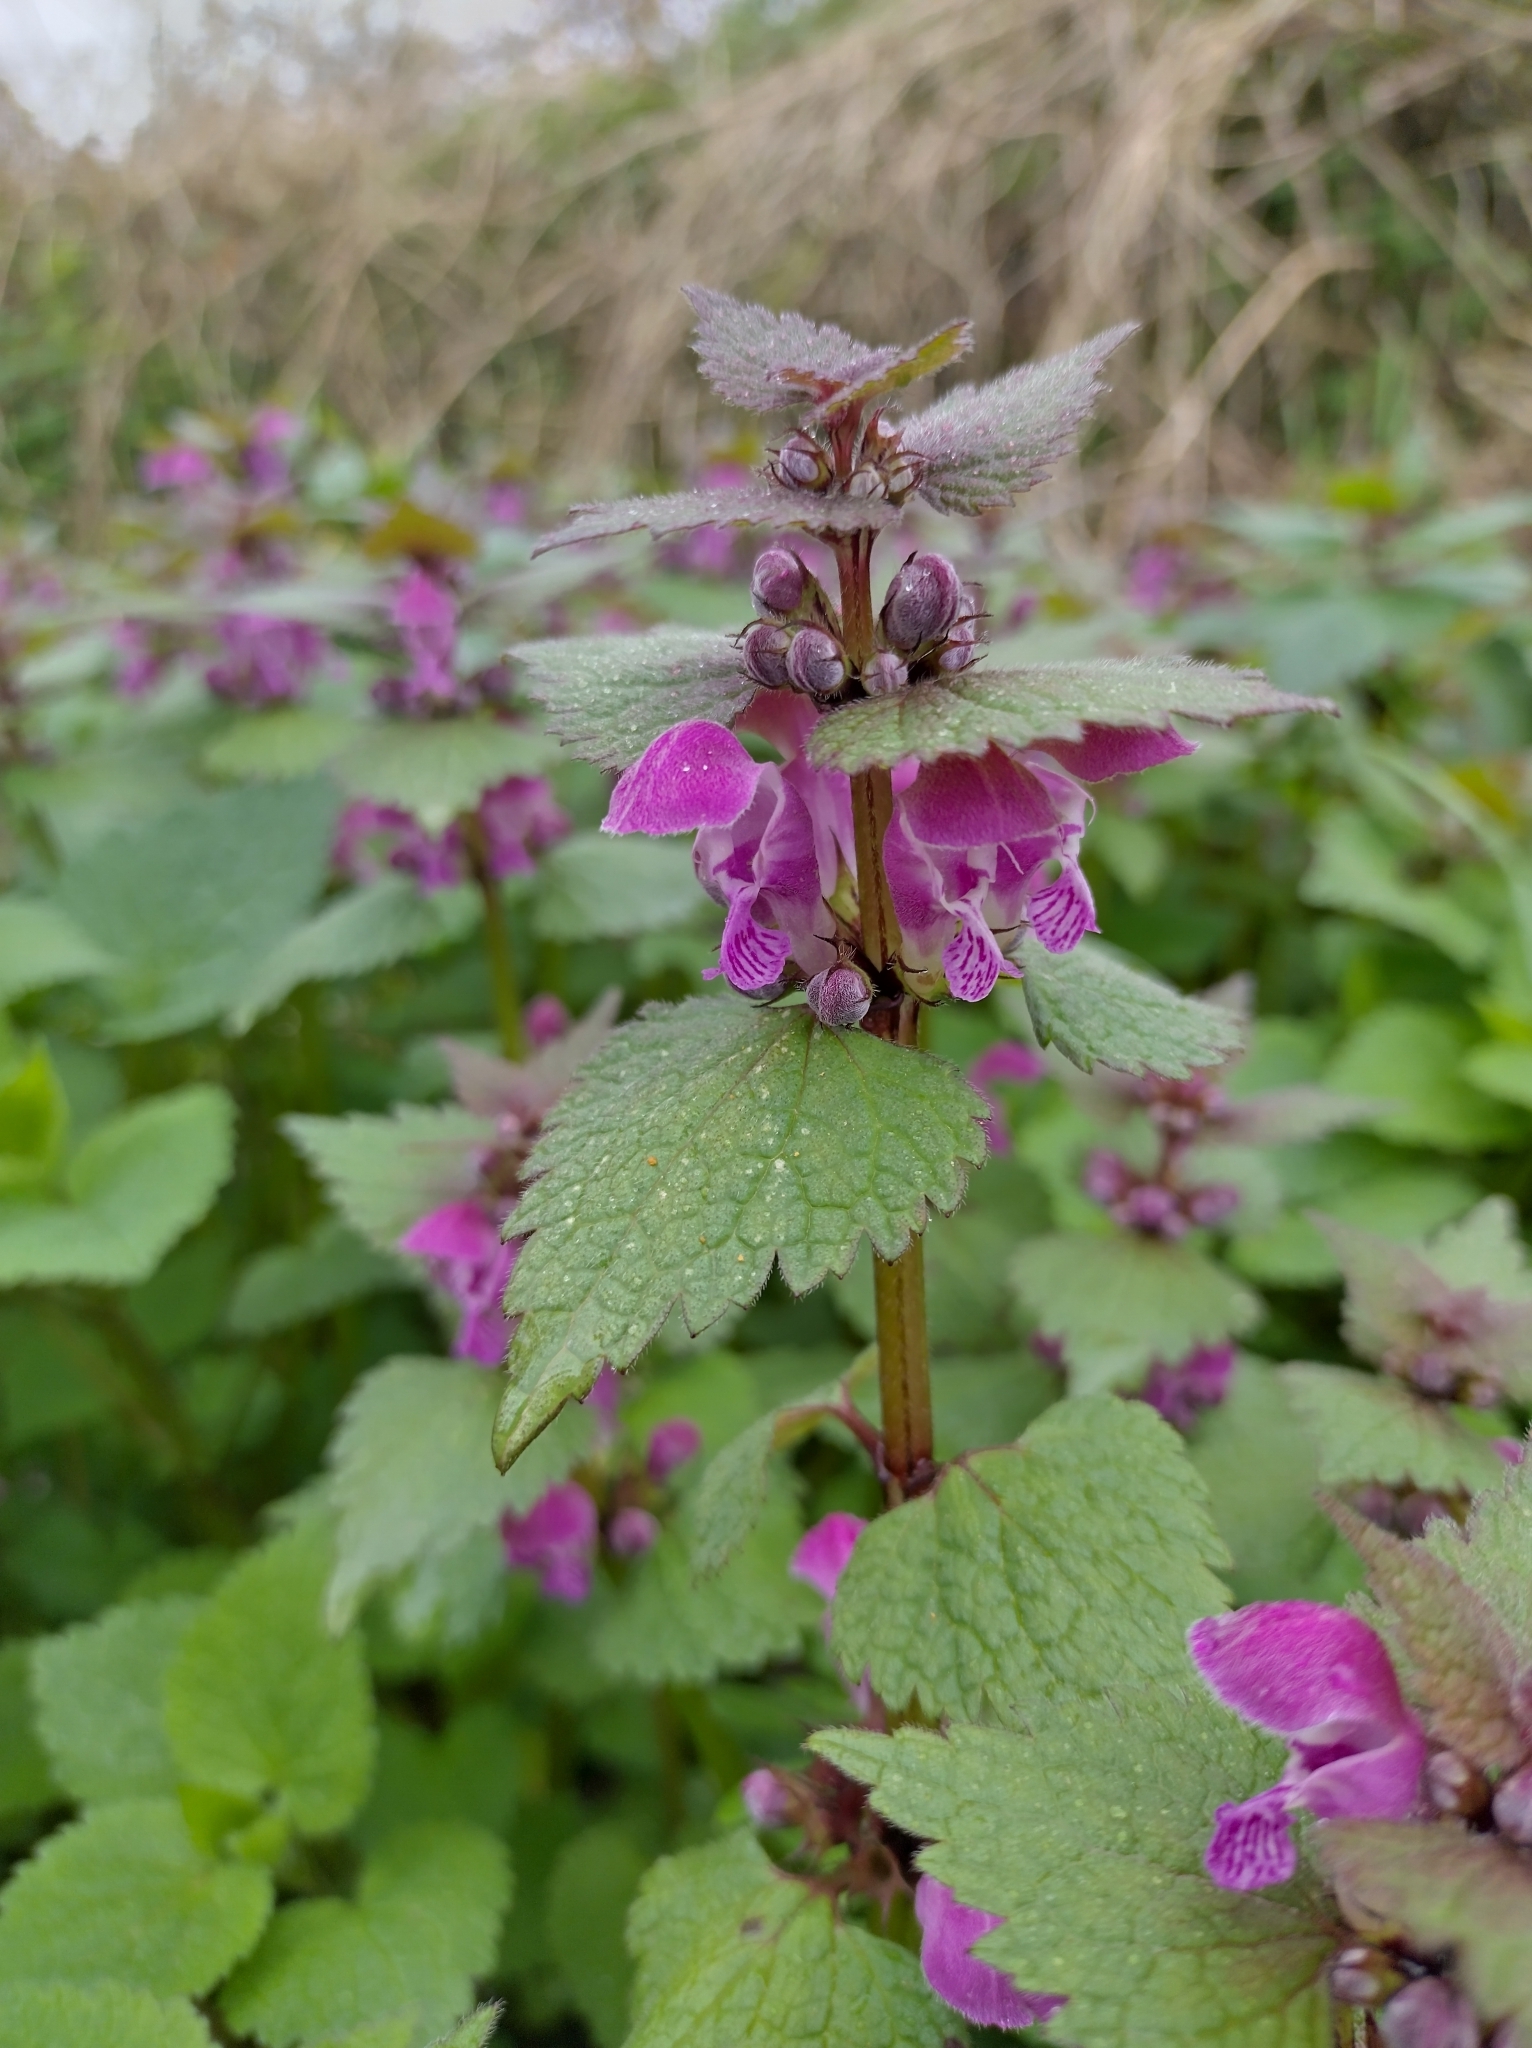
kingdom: Plantae
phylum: Tracheophyta
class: Magnoliopsida
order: Lamiales
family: Lamiaceae
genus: Lamium
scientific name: Lamium maculatum
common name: Spotted dead-nettle
